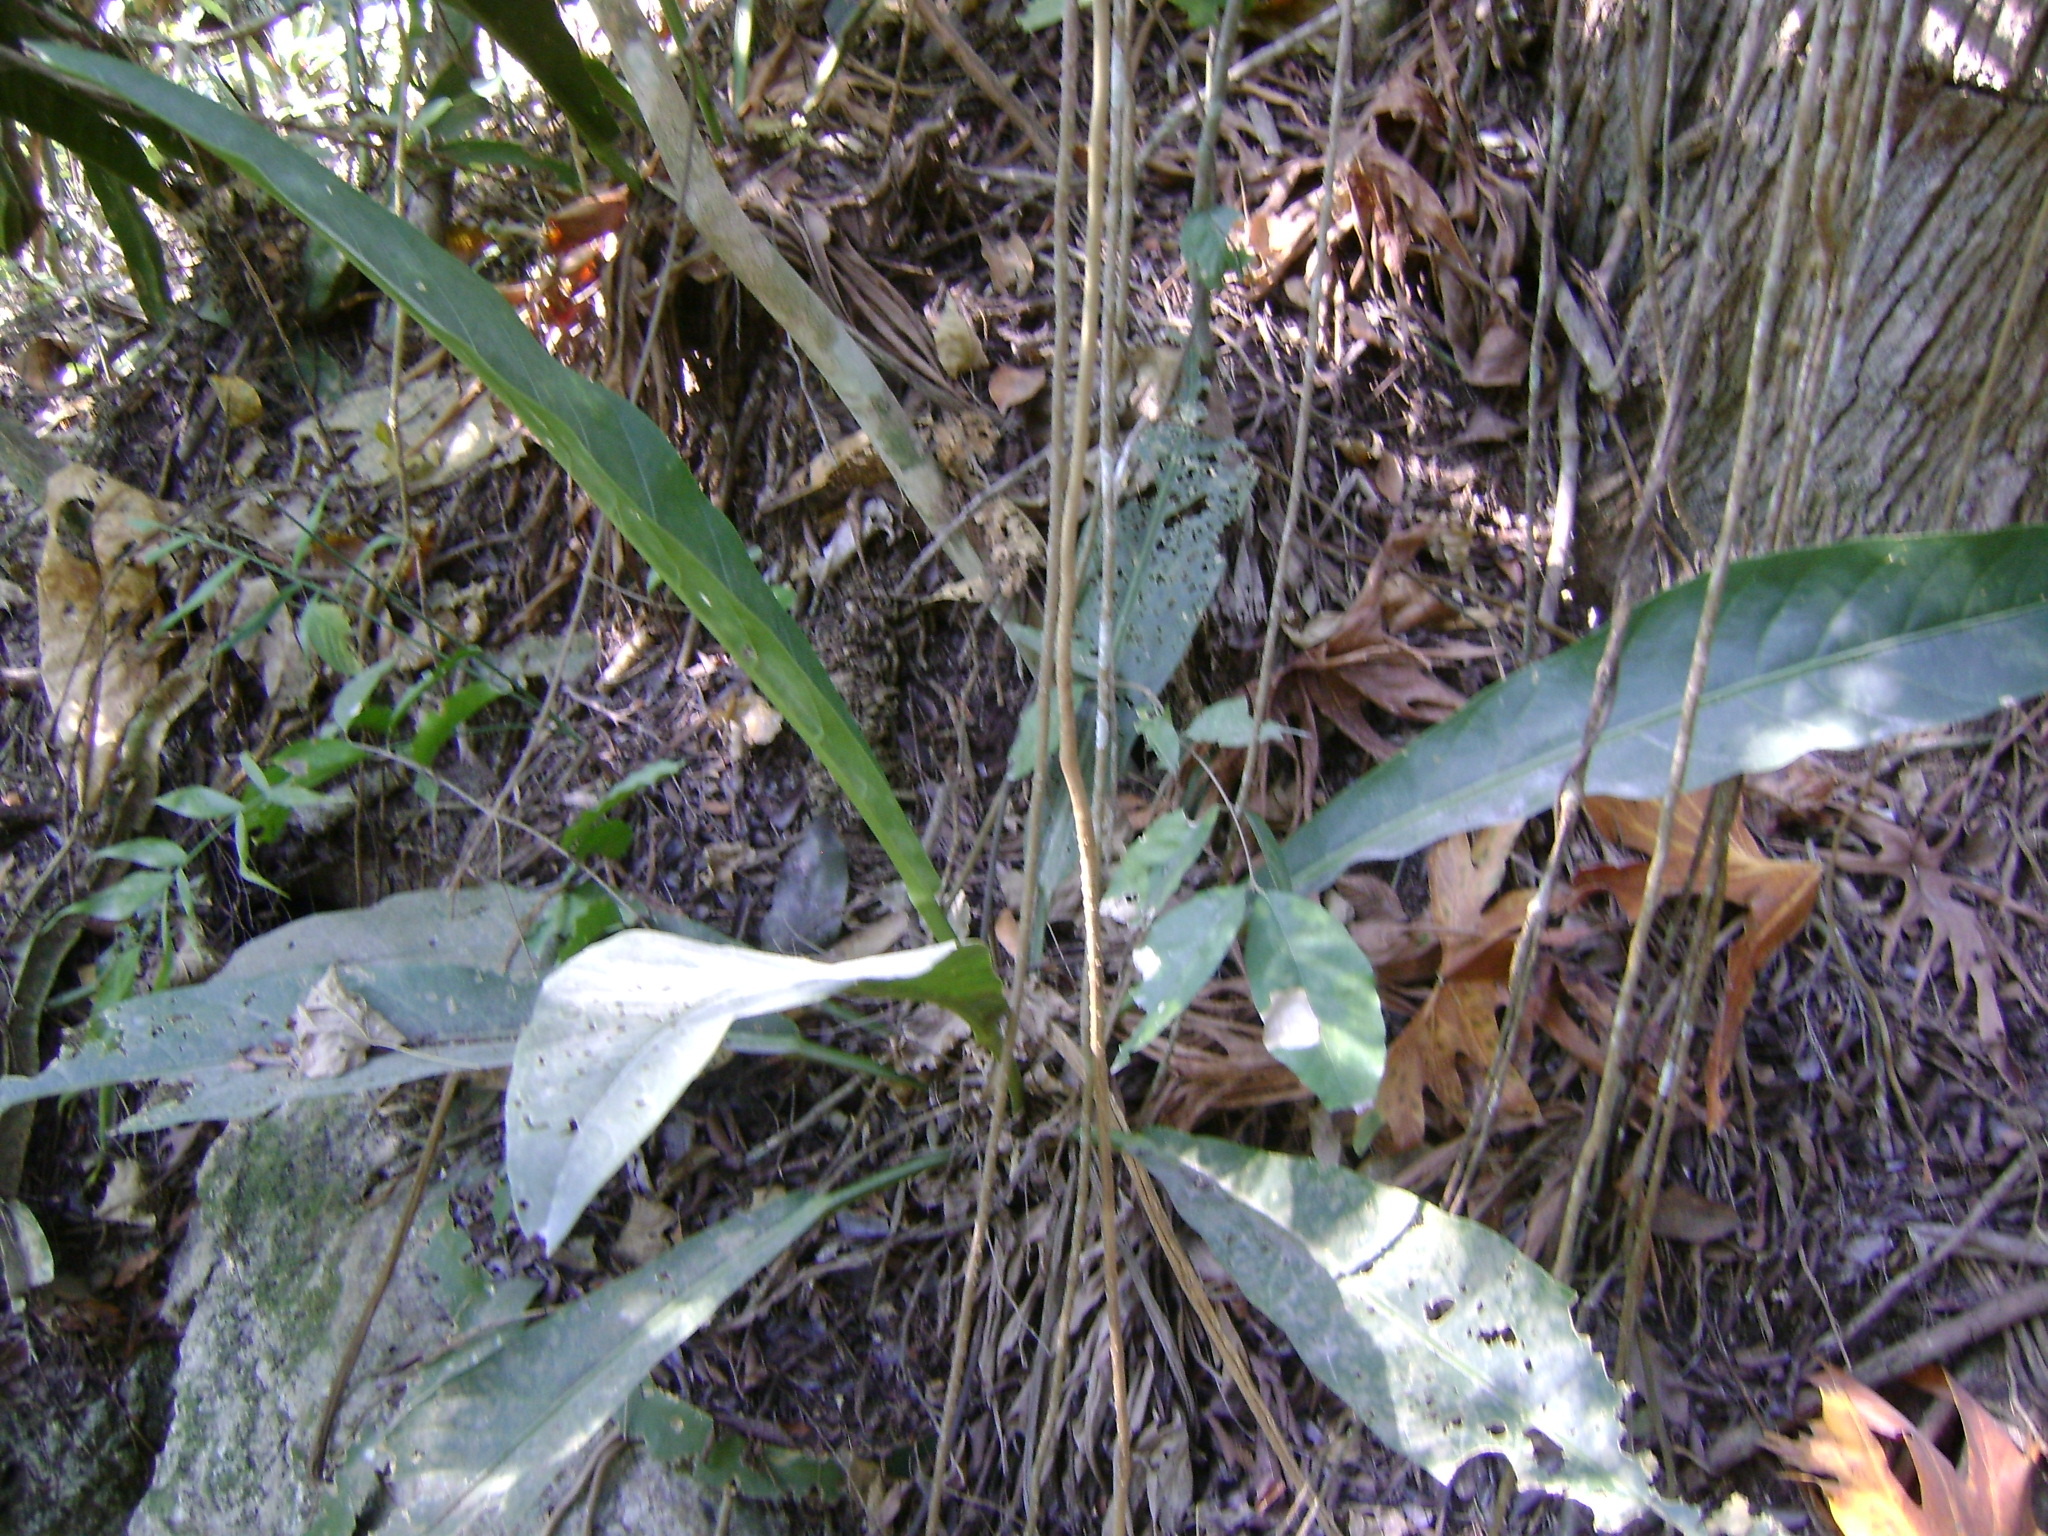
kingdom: Plantae
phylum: Tracheophyta
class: Liliopsida
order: Alismatales
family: Araceae
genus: Anthurium
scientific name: Anthurium schlechtendalii
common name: Laceleaf
